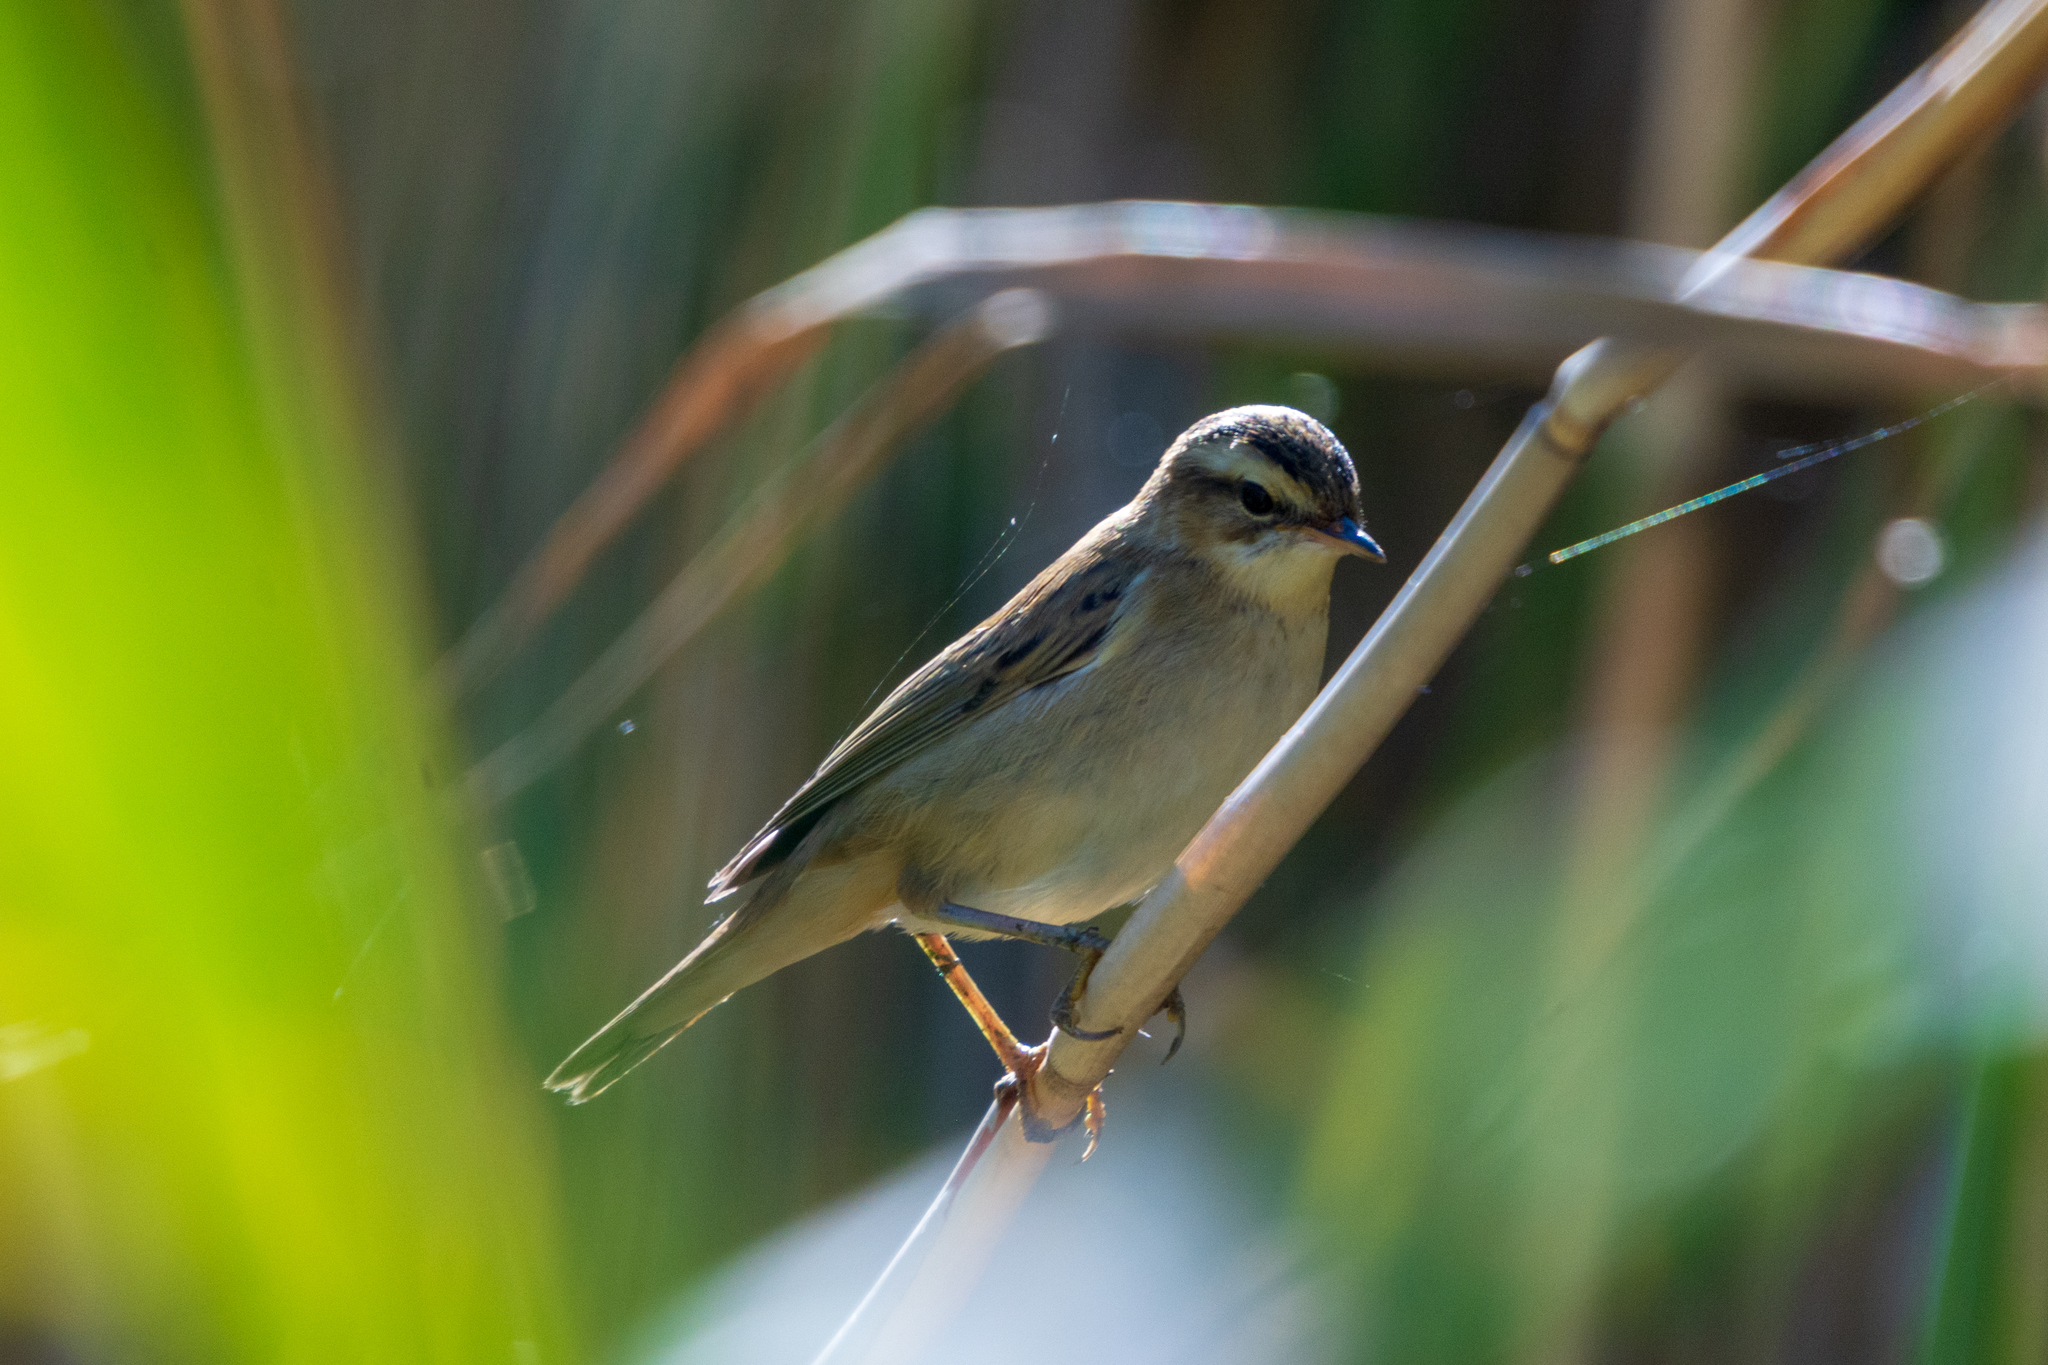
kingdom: Animalia
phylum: Chordata
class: Aves
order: Passeriformes
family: Acrocephalidae
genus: Acrocephalus
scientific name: Acrocephalus schoenobaenus
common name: Sedge warbler
